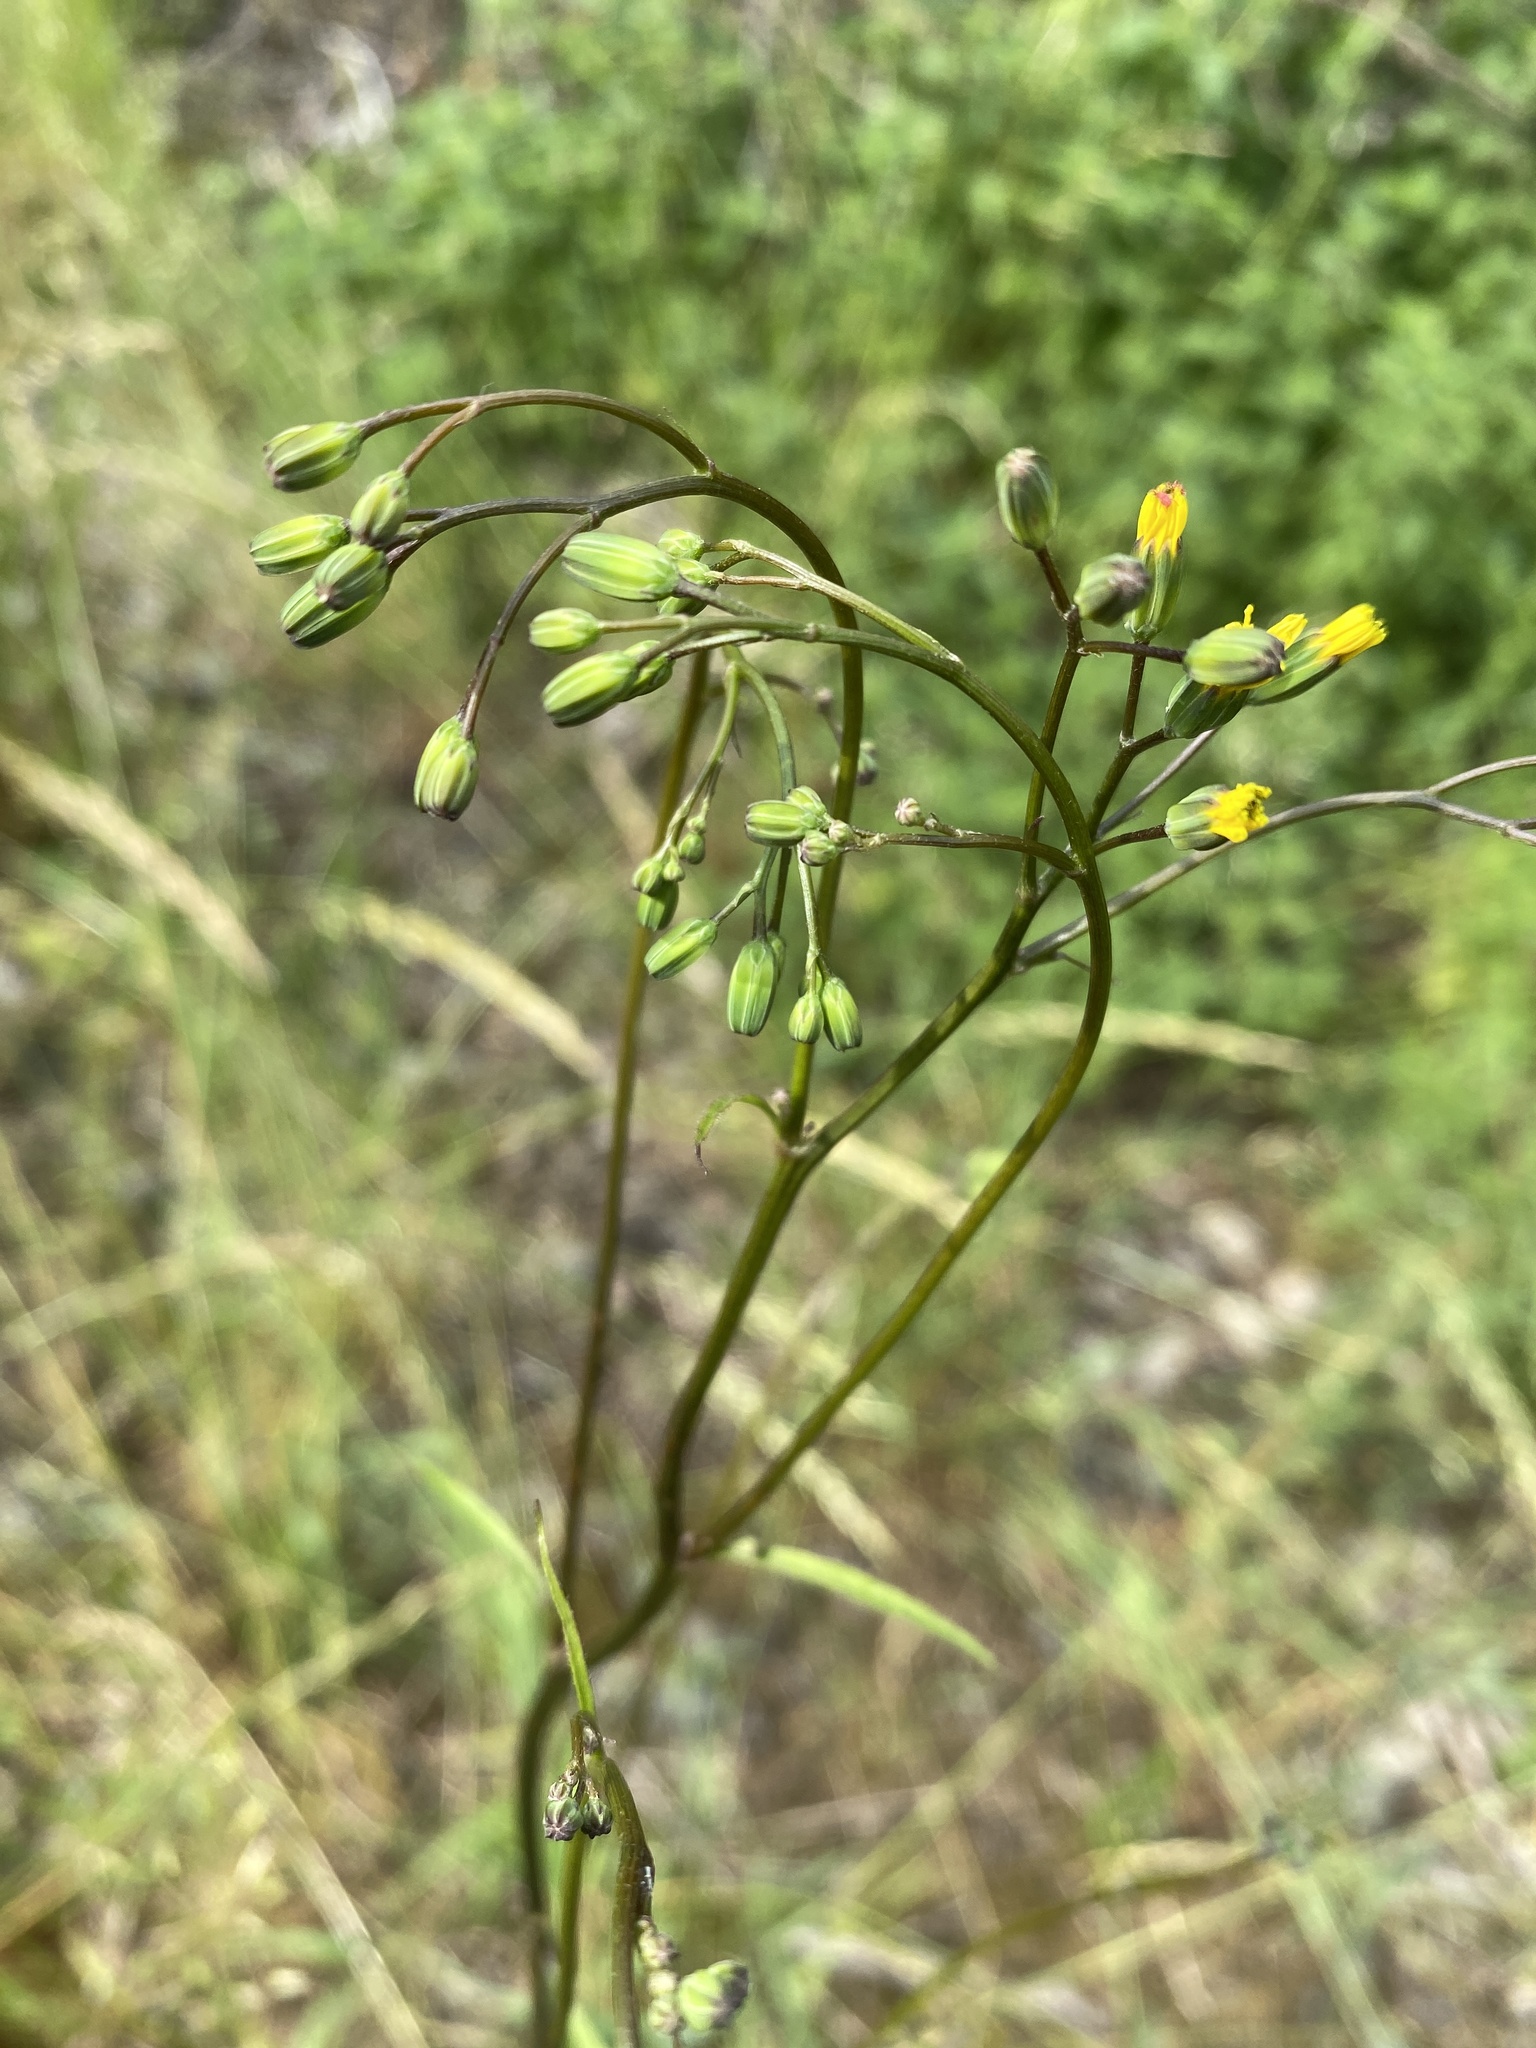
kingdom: Plantae
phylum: Tracheophyta
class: Magnoliopsida
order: Asterales
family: Asteraceae
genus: Lapsana
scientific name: Lapsana communis
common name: Nipplewort
